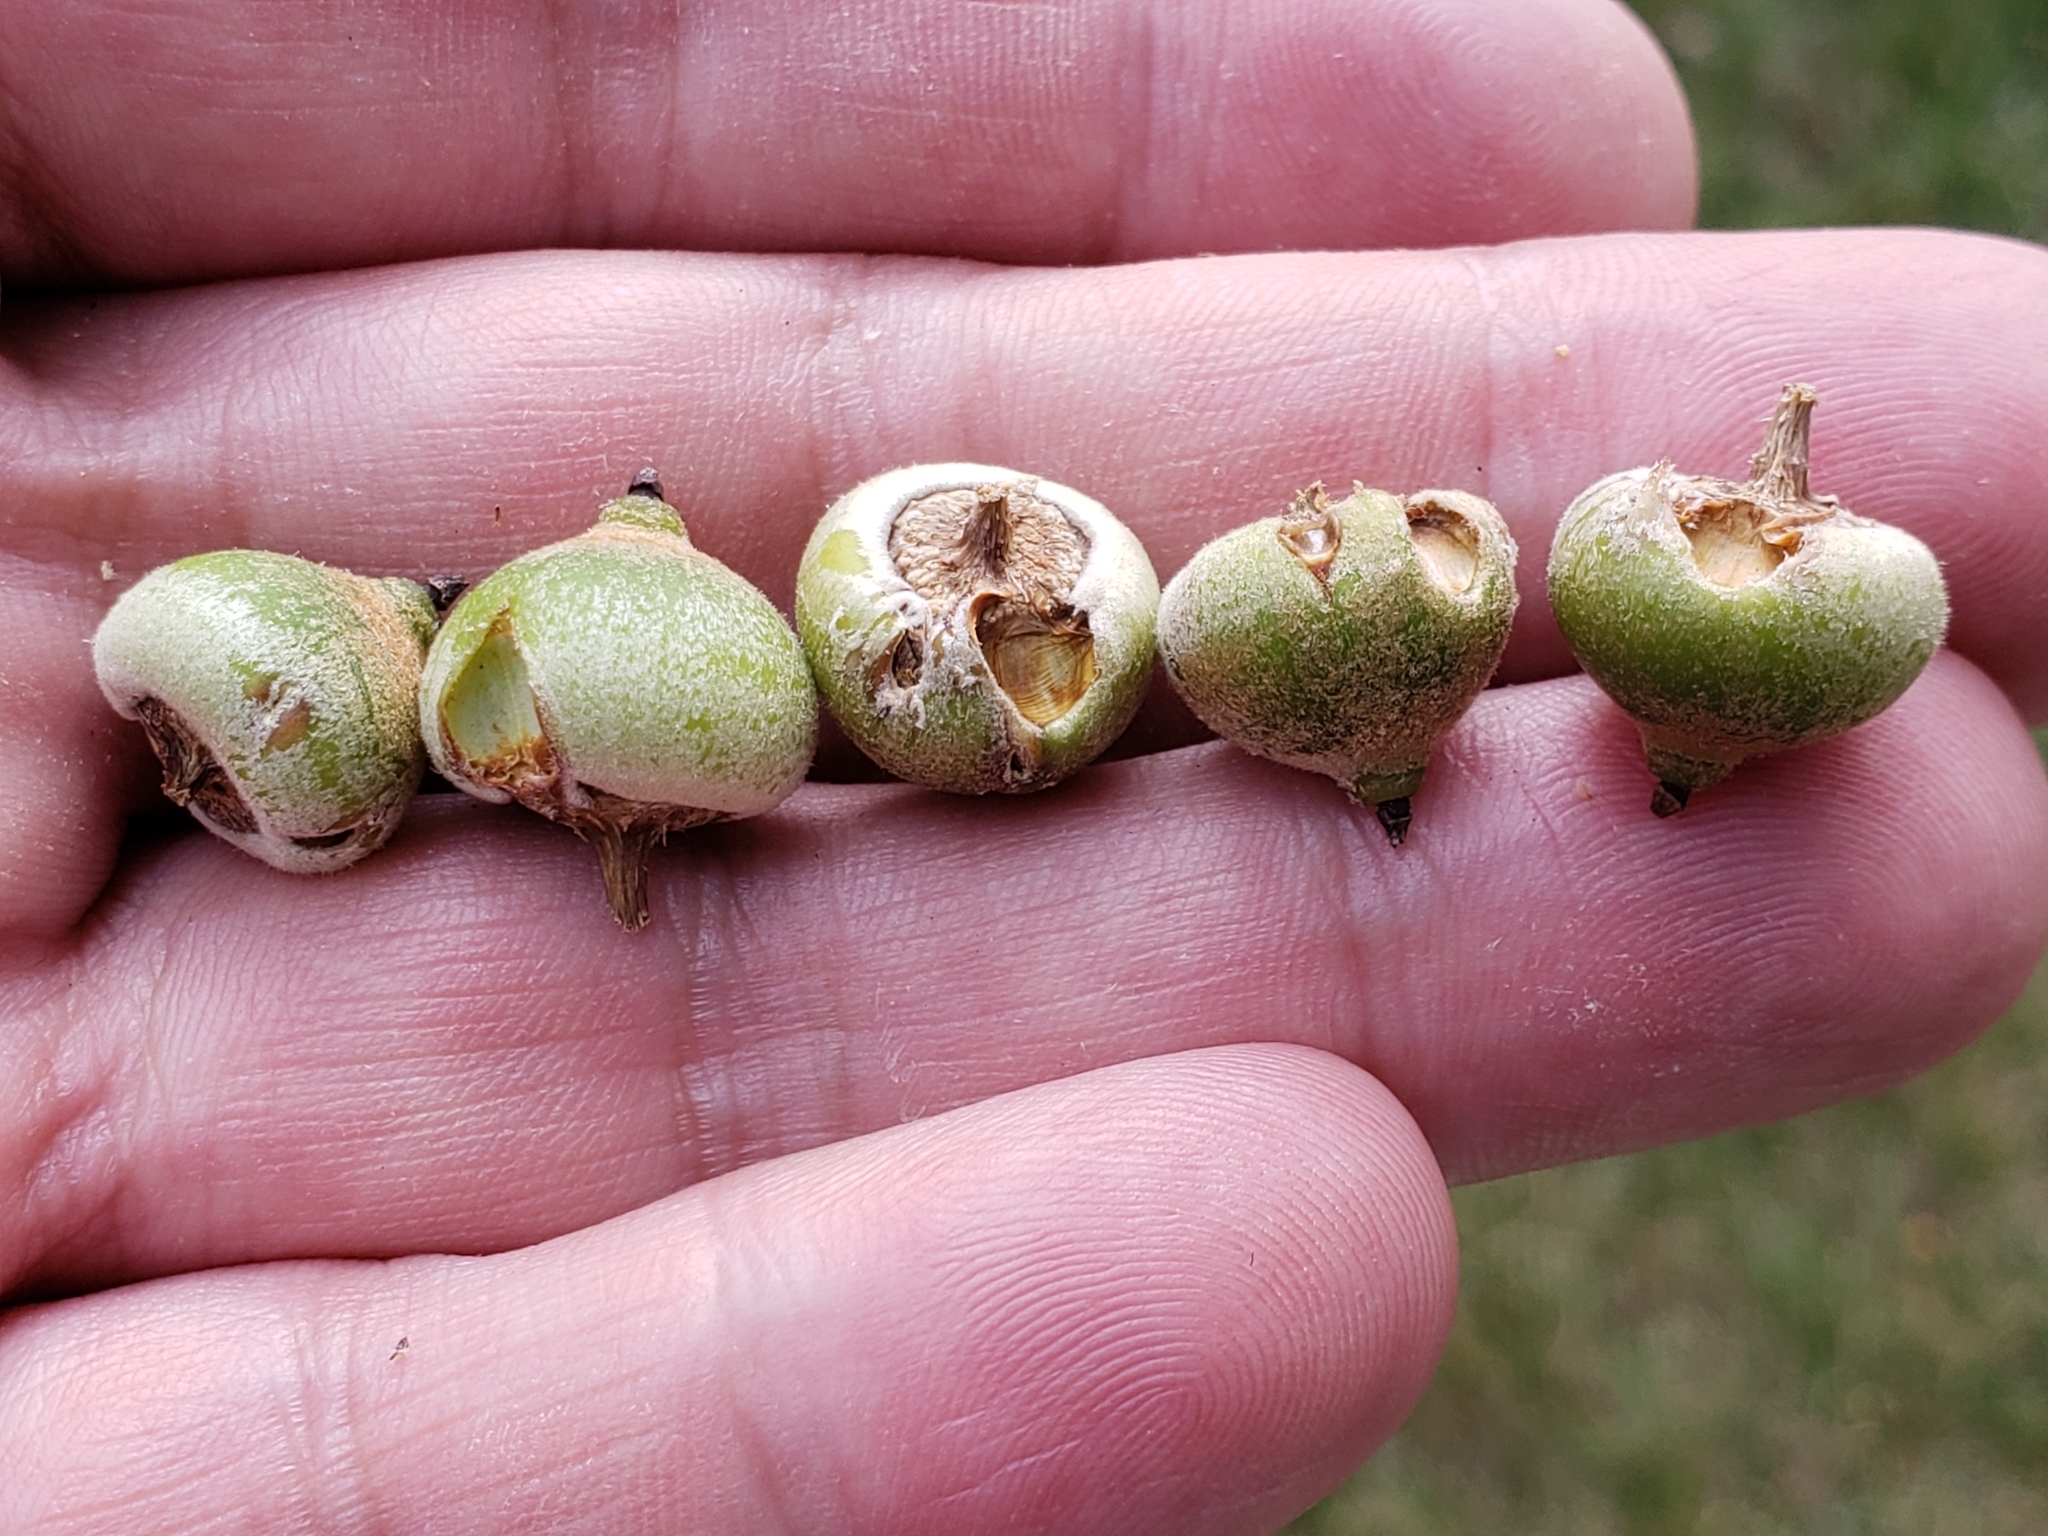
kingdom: Animalia
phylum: Arthropoda
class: Insecta
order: Hymenoptera
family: Cynipidae
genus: Callirhytis
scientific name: Callirhytis
